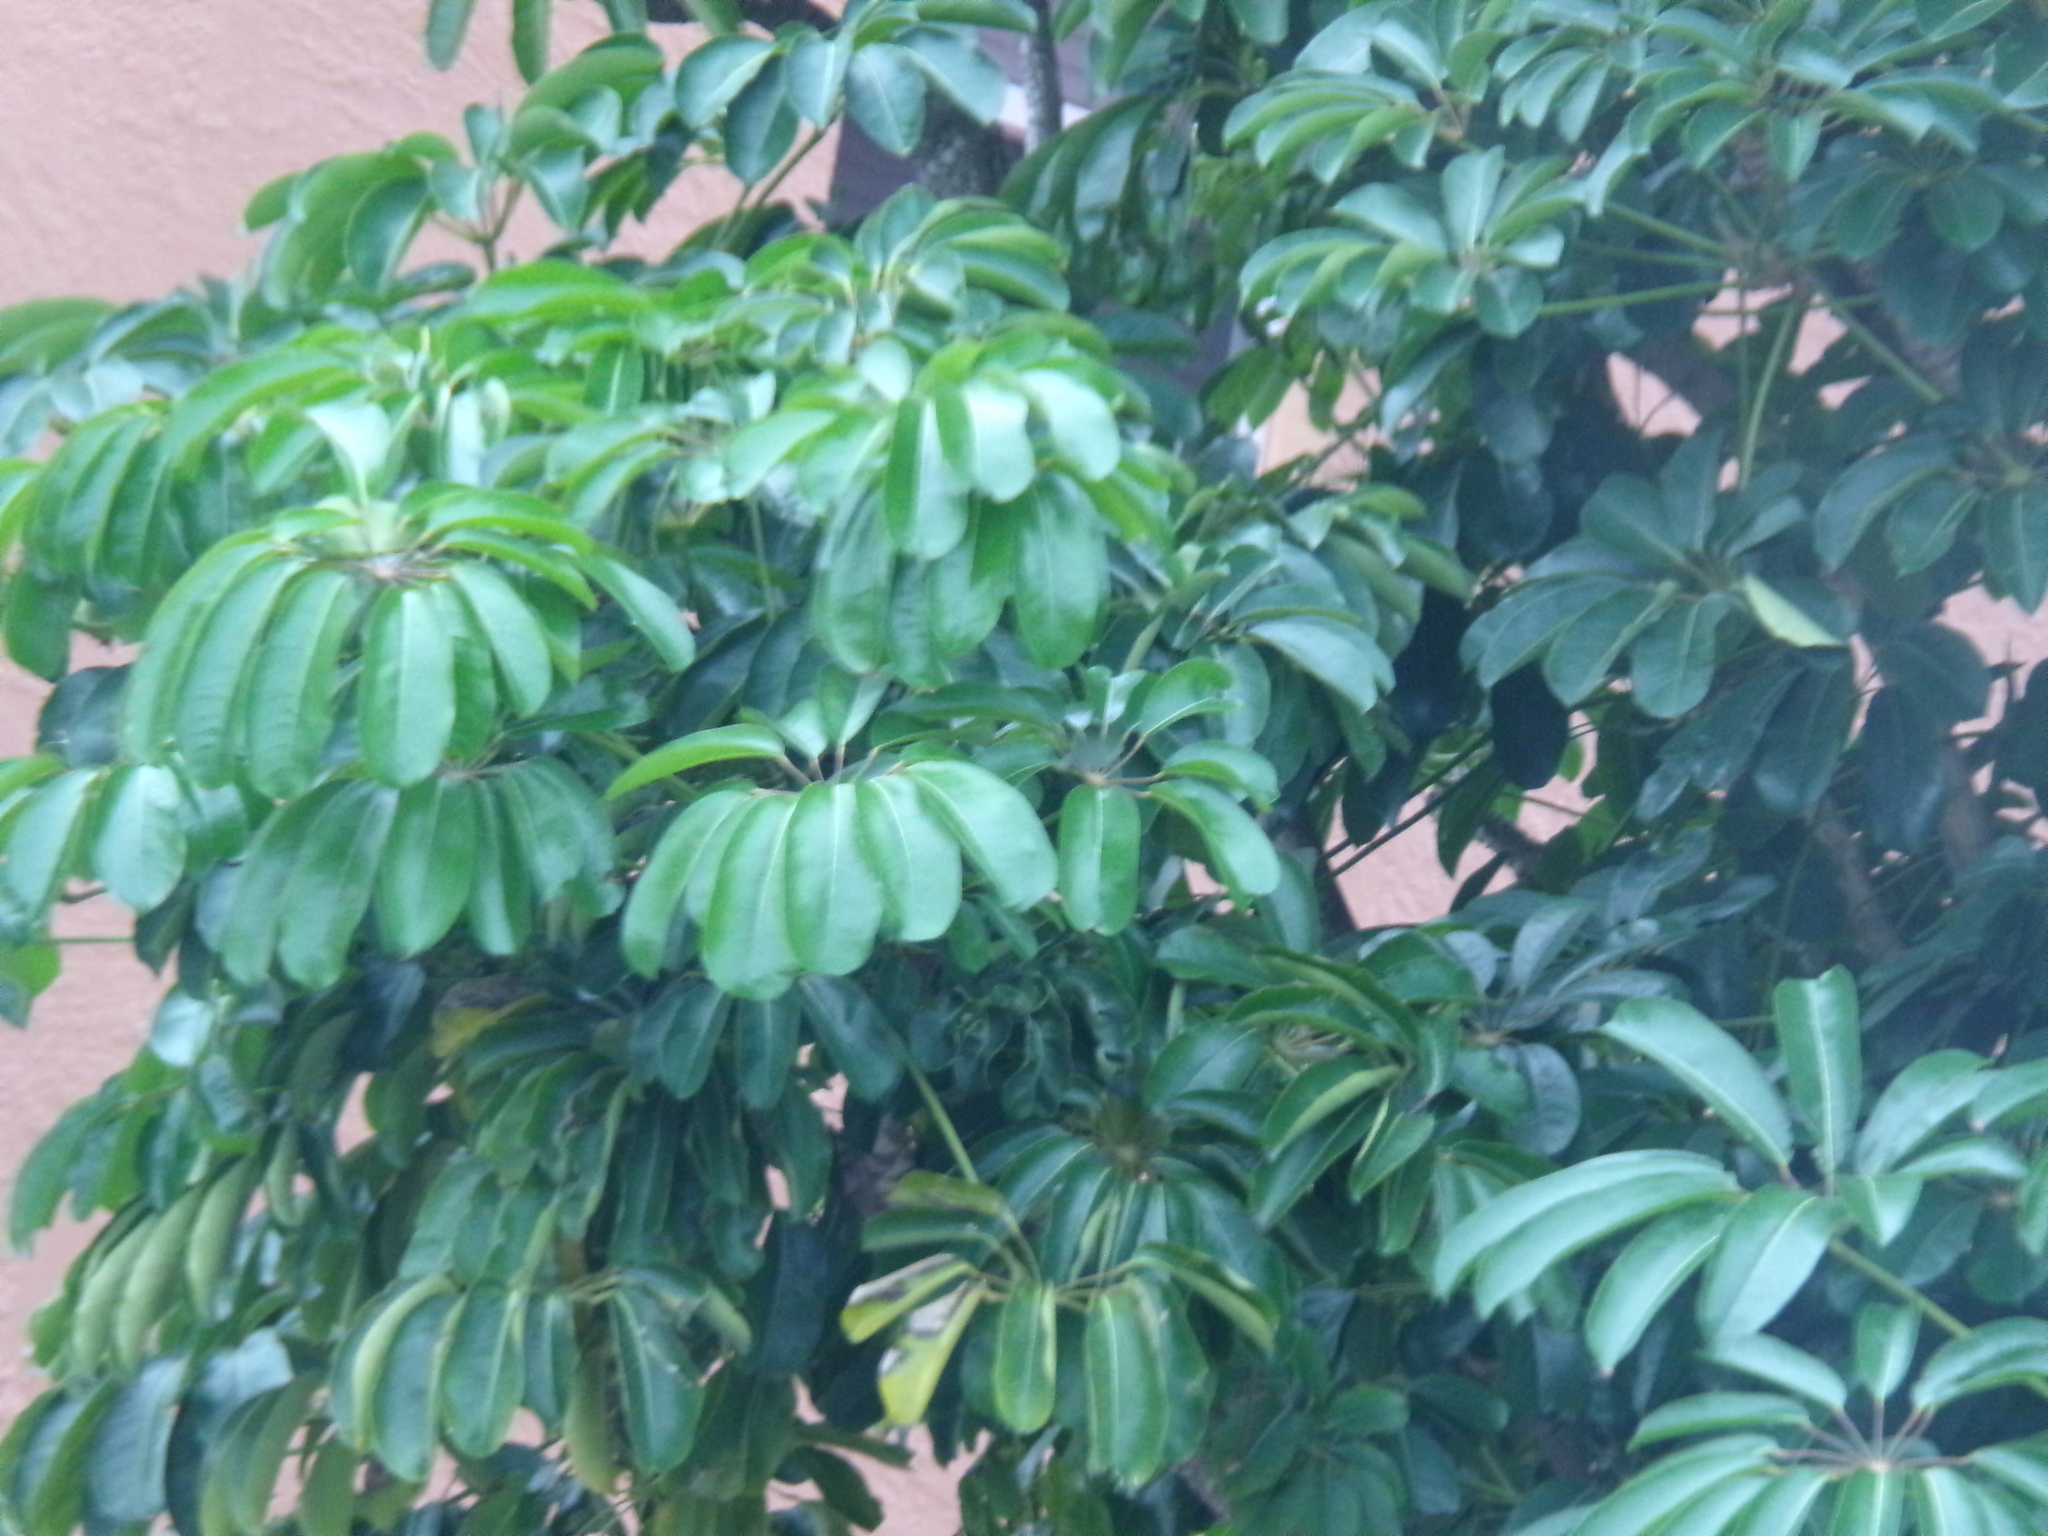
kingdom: Plantae
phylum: Tracheophyta
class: Magnoliopsida
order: Apiales
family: Araliaceae
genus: Heptapleurum
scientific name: Heptapleurum actinophyllum
